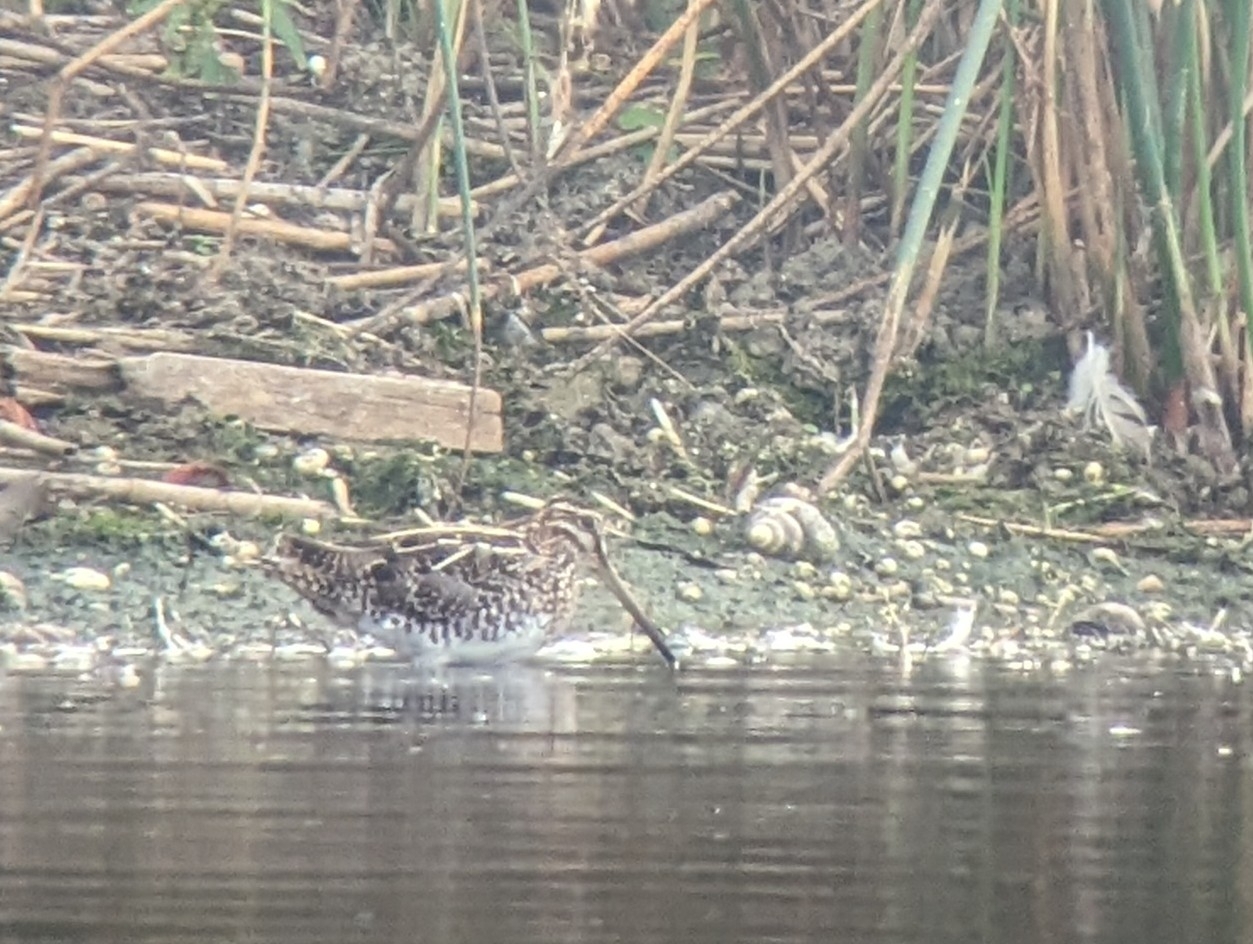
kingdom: Animalia
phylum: Chordata
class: Aves
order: Charadriiformes
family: Scolopacidae
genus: Gallinago
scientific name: Gallinago delicata
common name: Wilson's snipe
